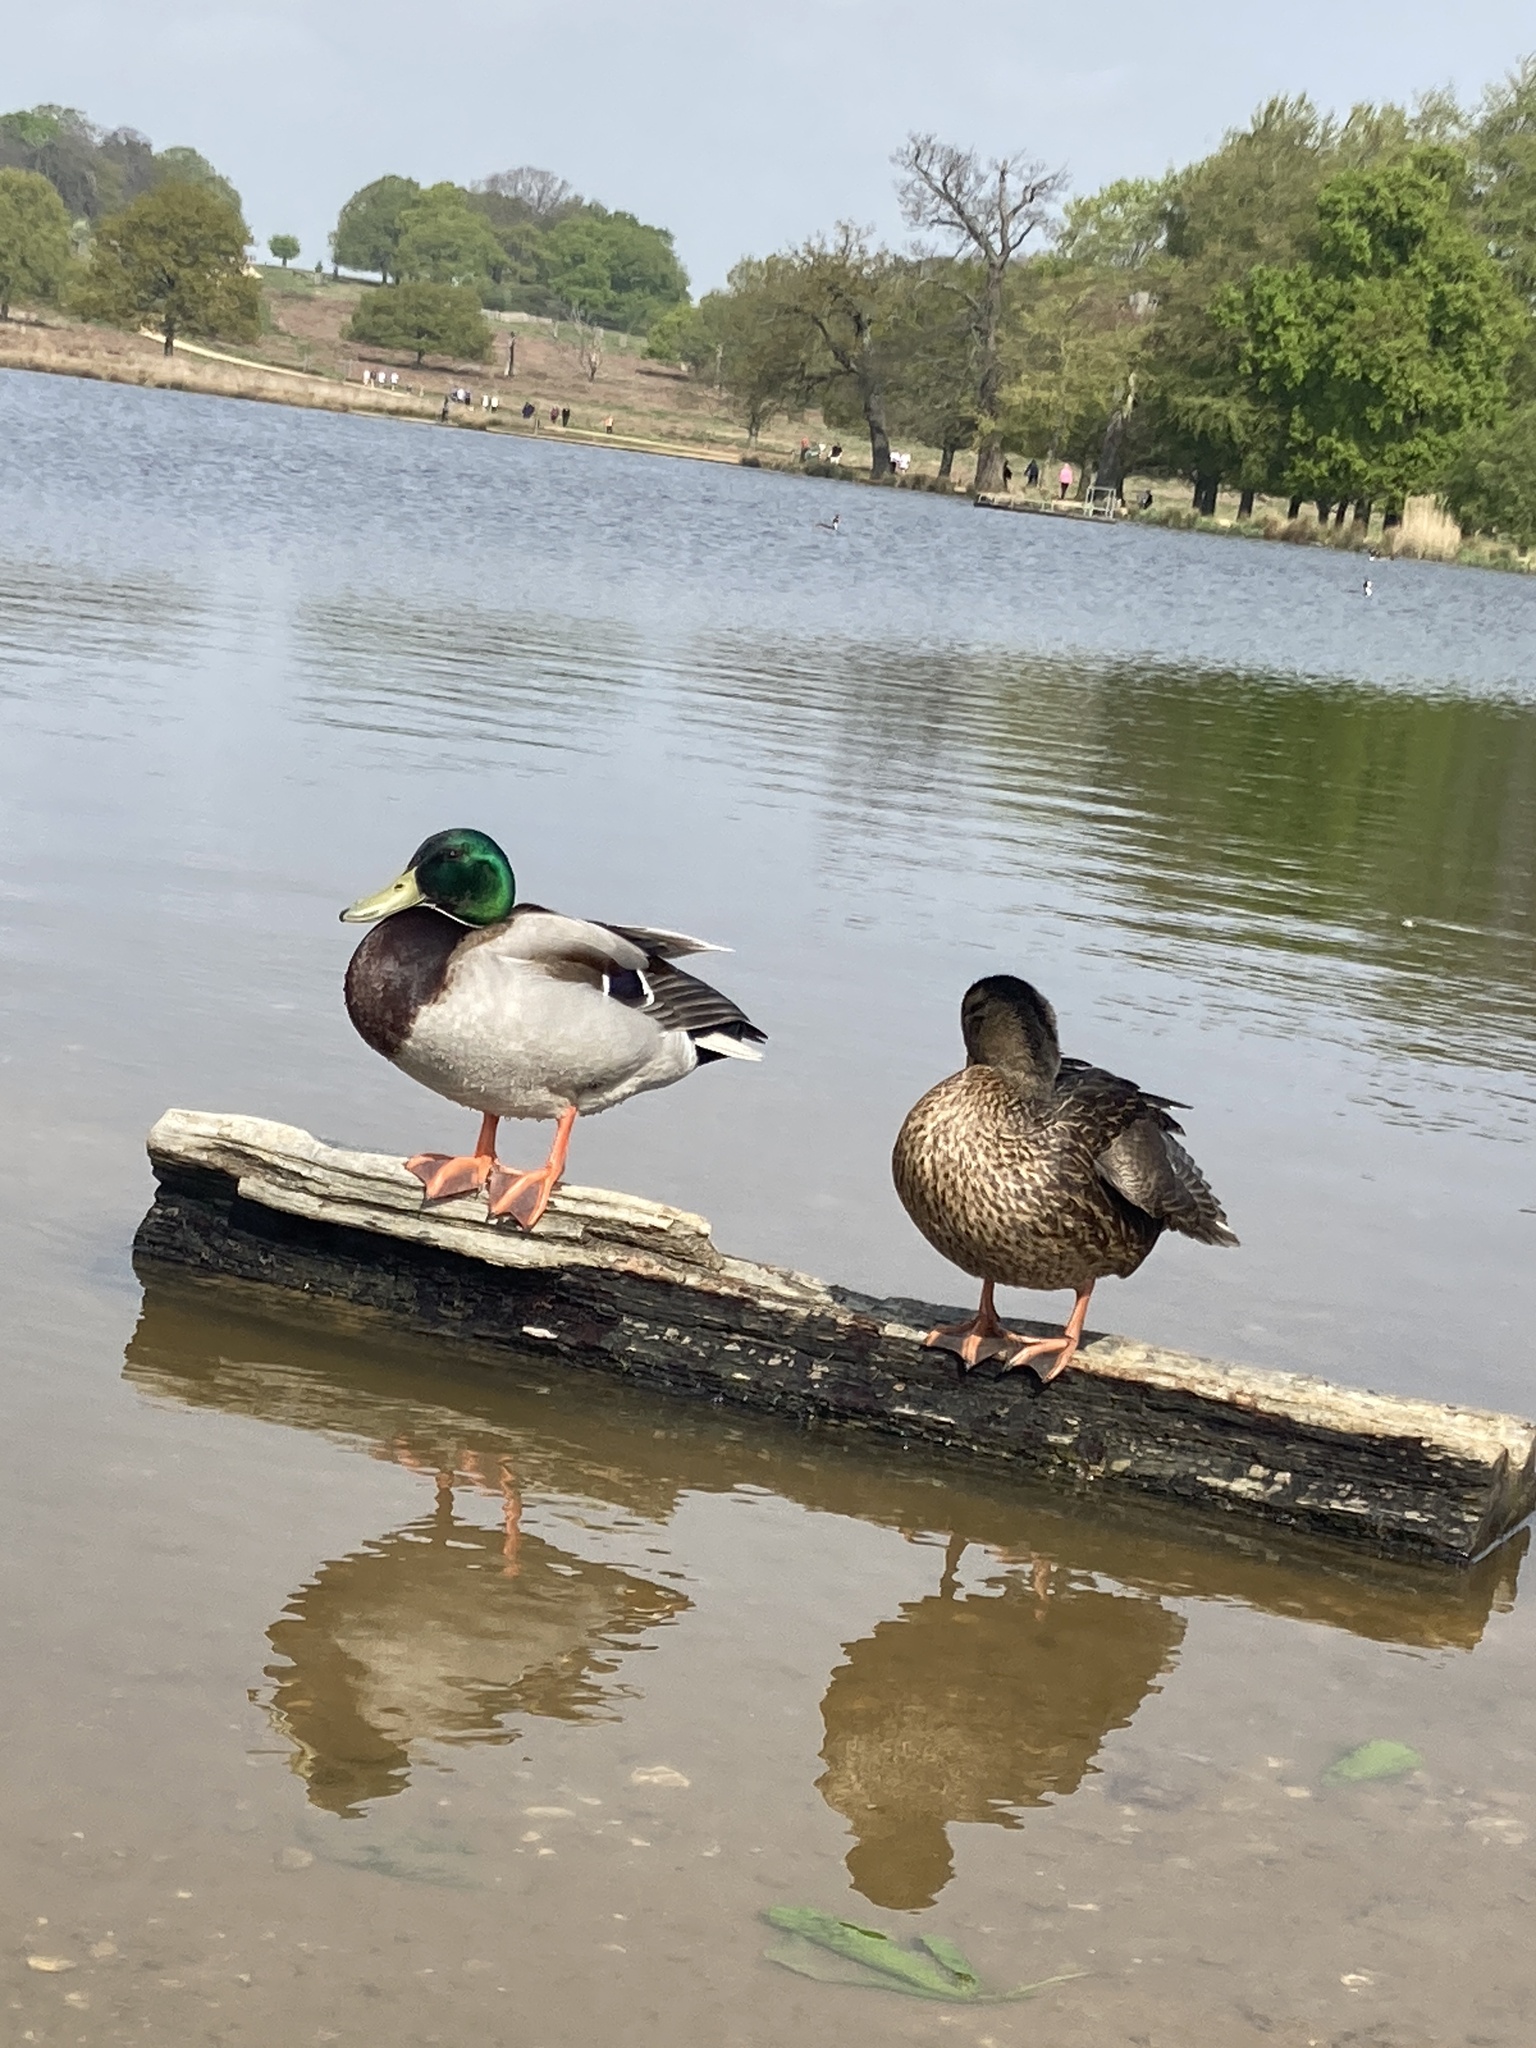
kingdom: Animalia
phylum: Chordata
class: Aves
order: Anseriformes
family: Anatidae
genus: Anas
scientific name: Anas platyrhynchos
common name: Mallard
